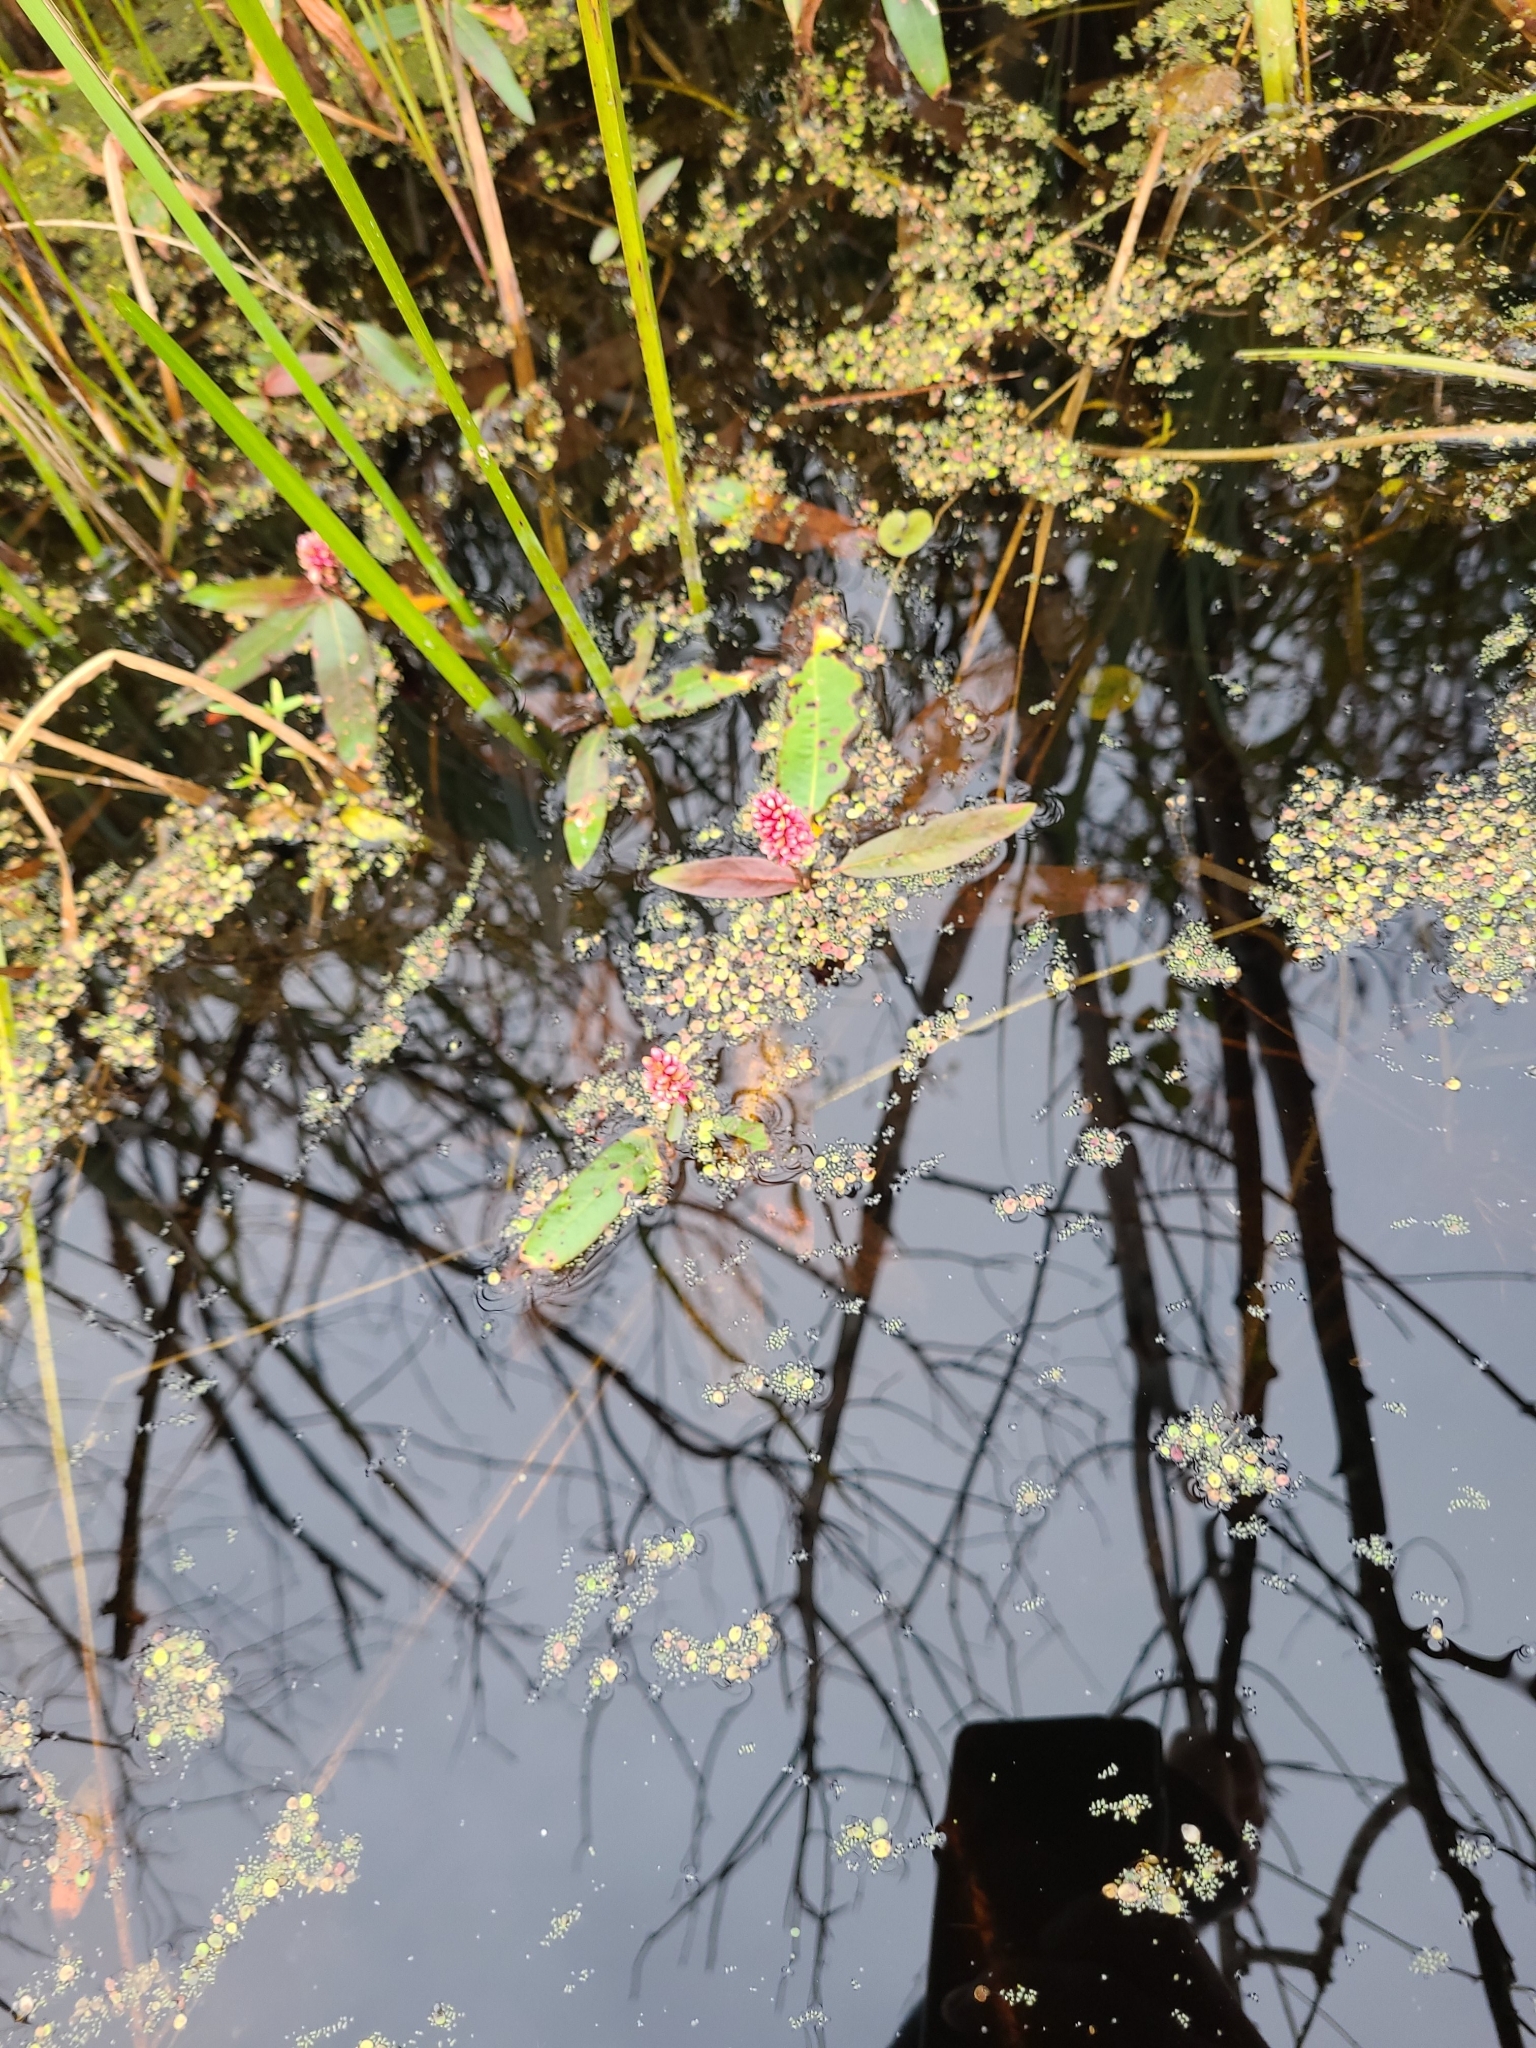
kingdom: Plantae
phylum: Tracheophyta
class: Magnoliopsida
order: Caryophyllales
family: Polygonaceae
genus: Persicaria
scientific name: Persicaria amphibia
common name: Amphibious bistort
